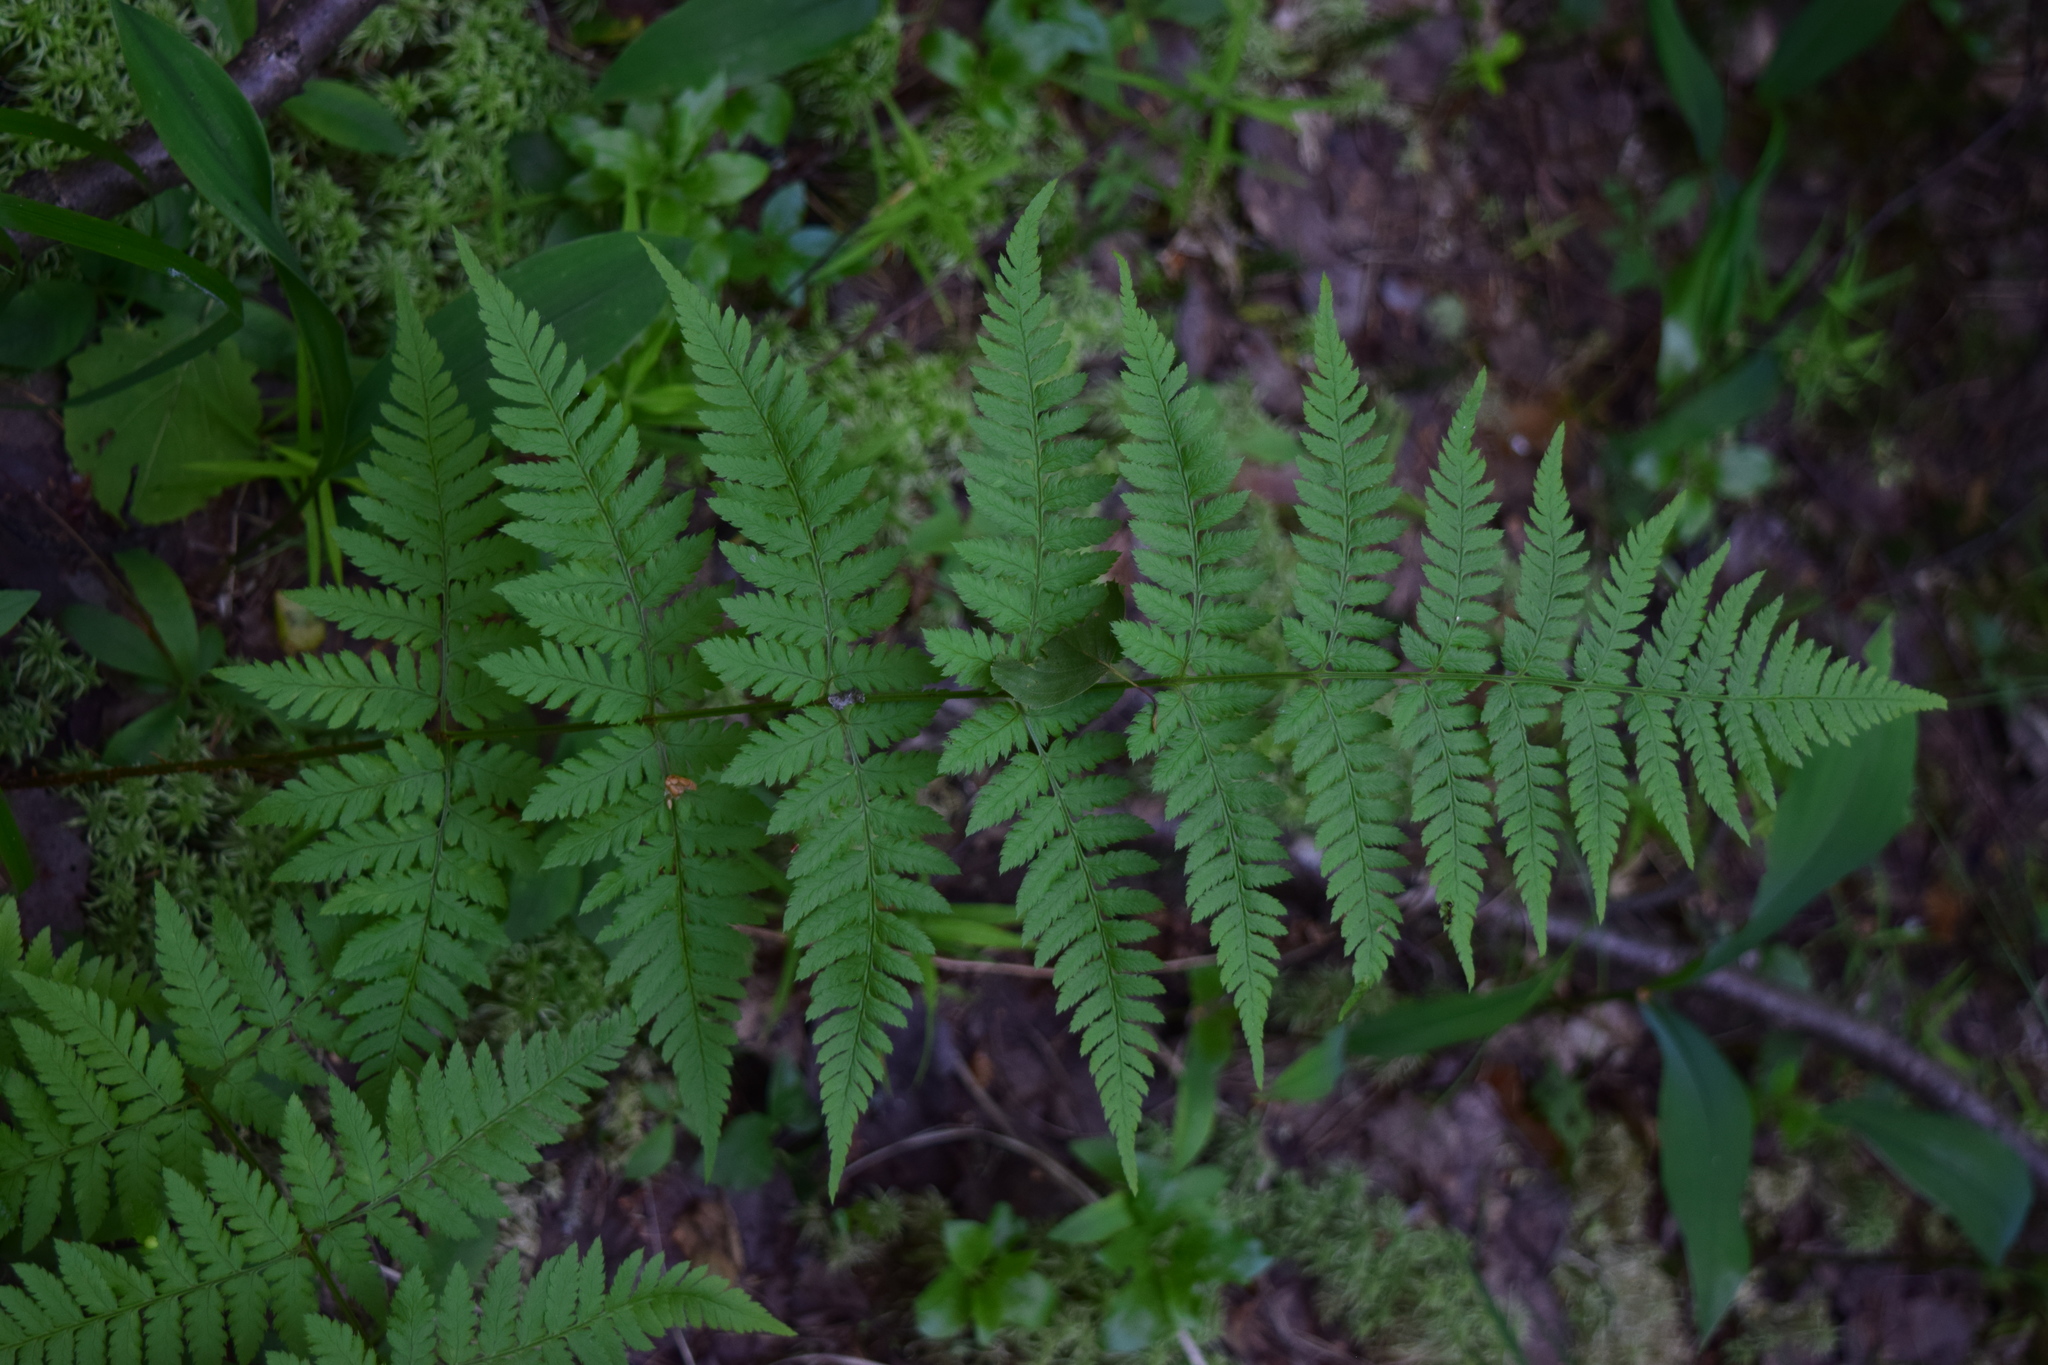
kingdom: Plantae
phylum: Tracheophyta
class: Polypodiopsida
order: Polypodiales
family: Dryopteridaceae
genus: Dryopteris
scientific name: Dryopteris carthusiana
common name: Narrow buckler-fern
